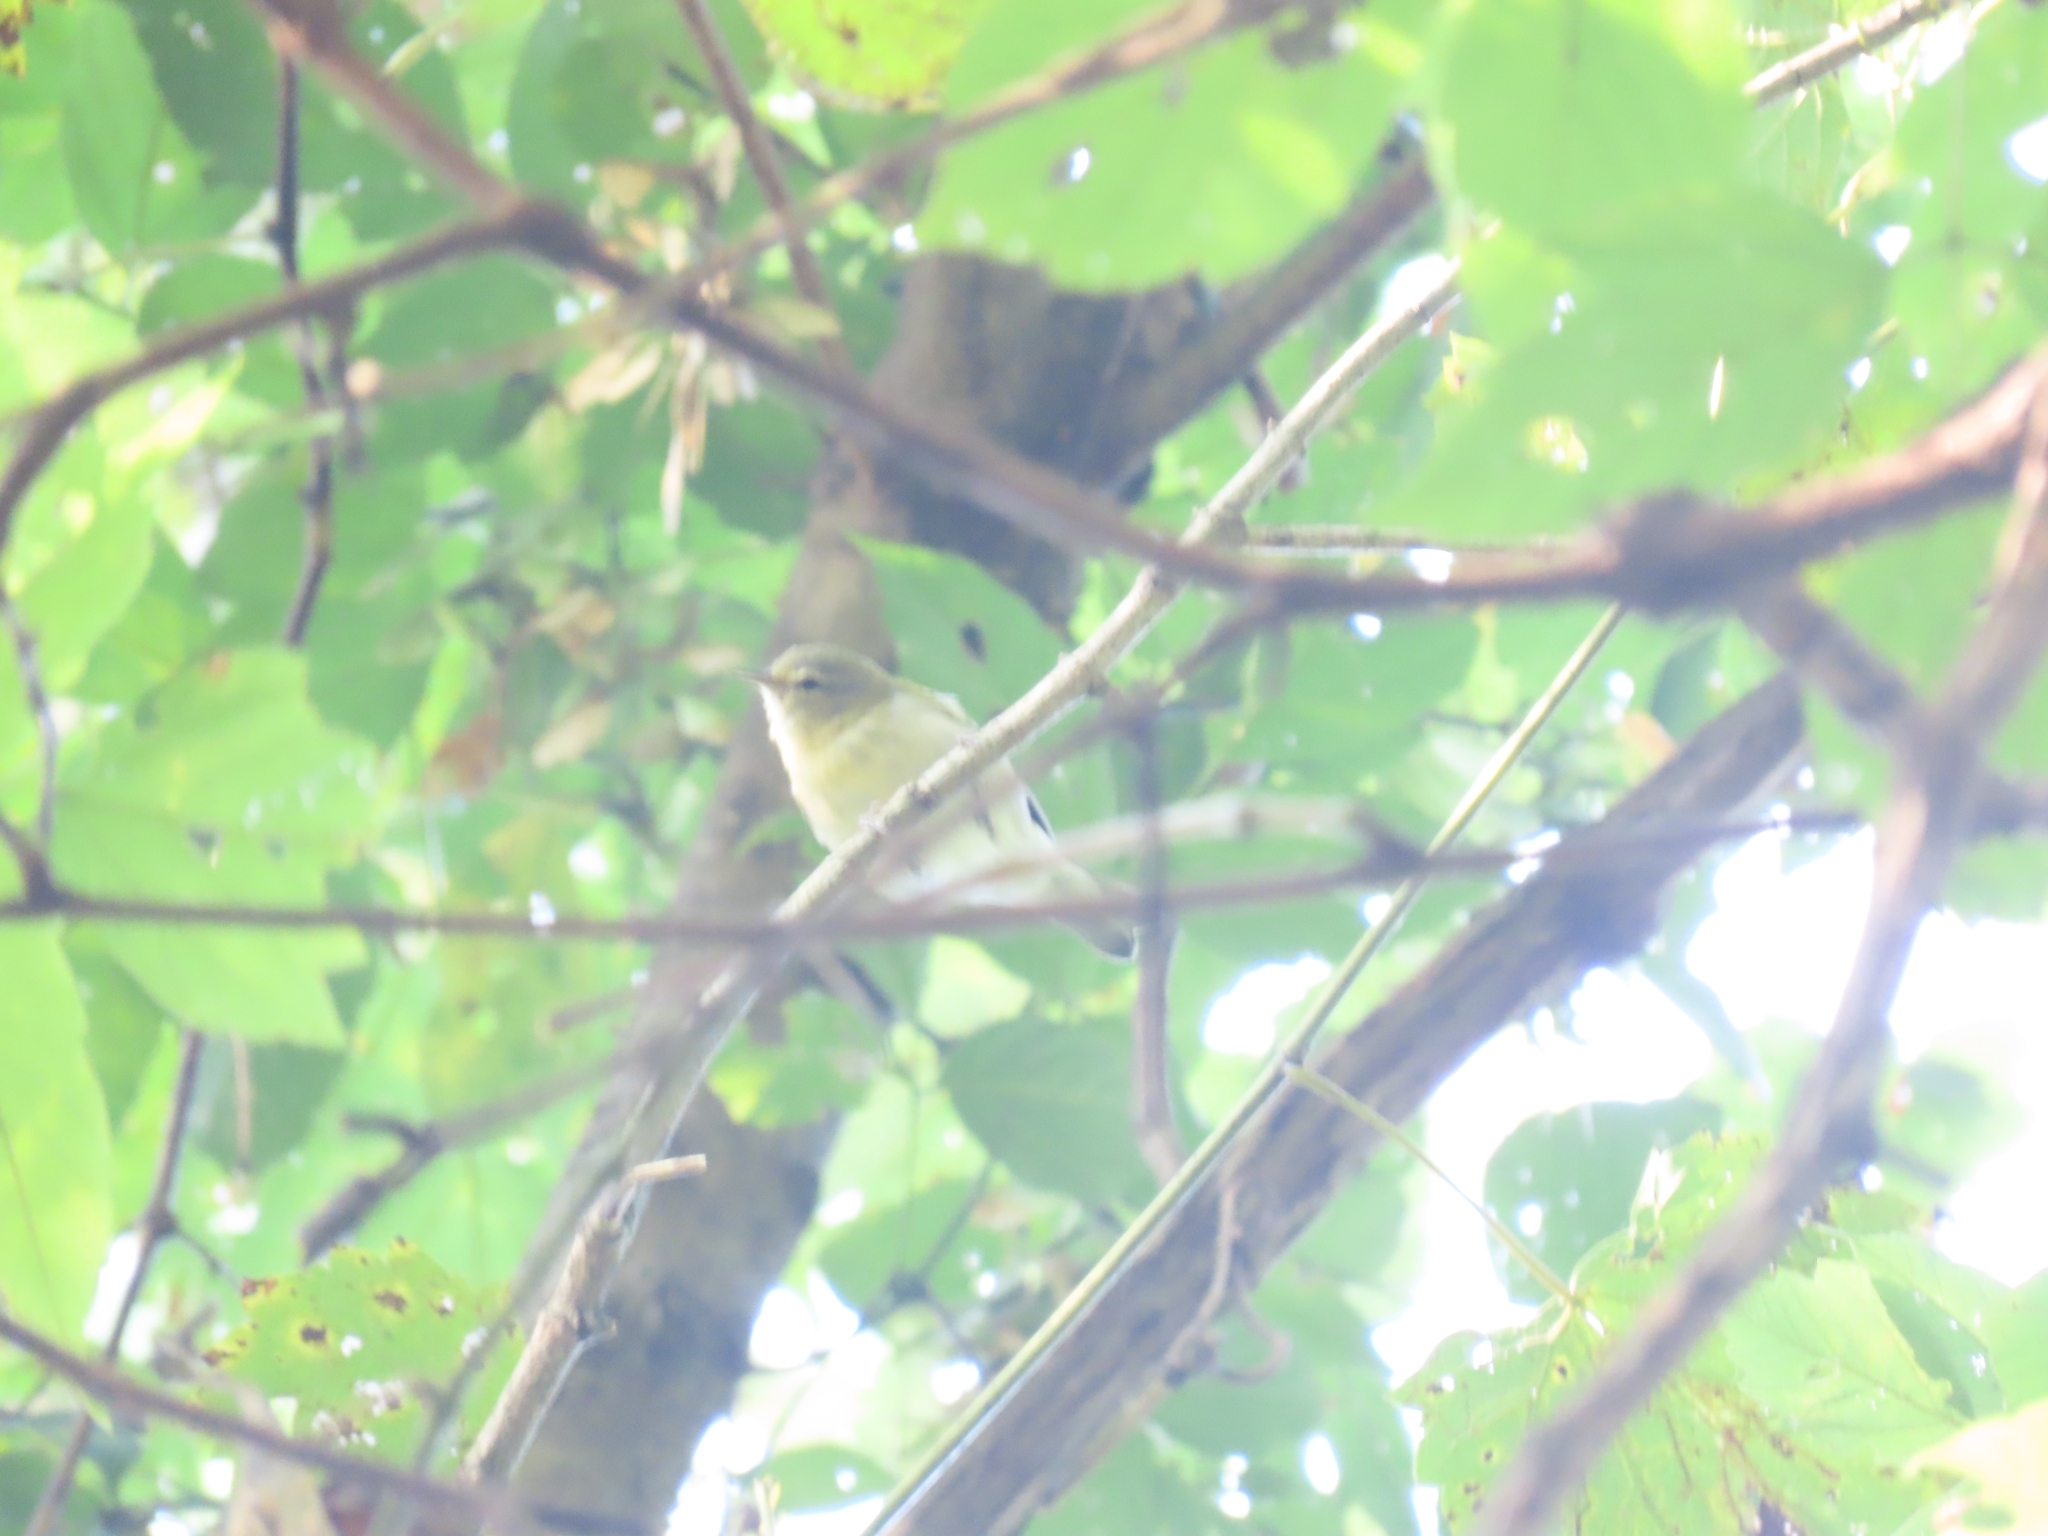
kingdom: Animalia
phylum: Chordata
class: Aves
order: Passeriformes
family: Parulidae
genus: Leiothlypis
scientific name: Leiothlypis peregrina
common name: Tennessee warbler
